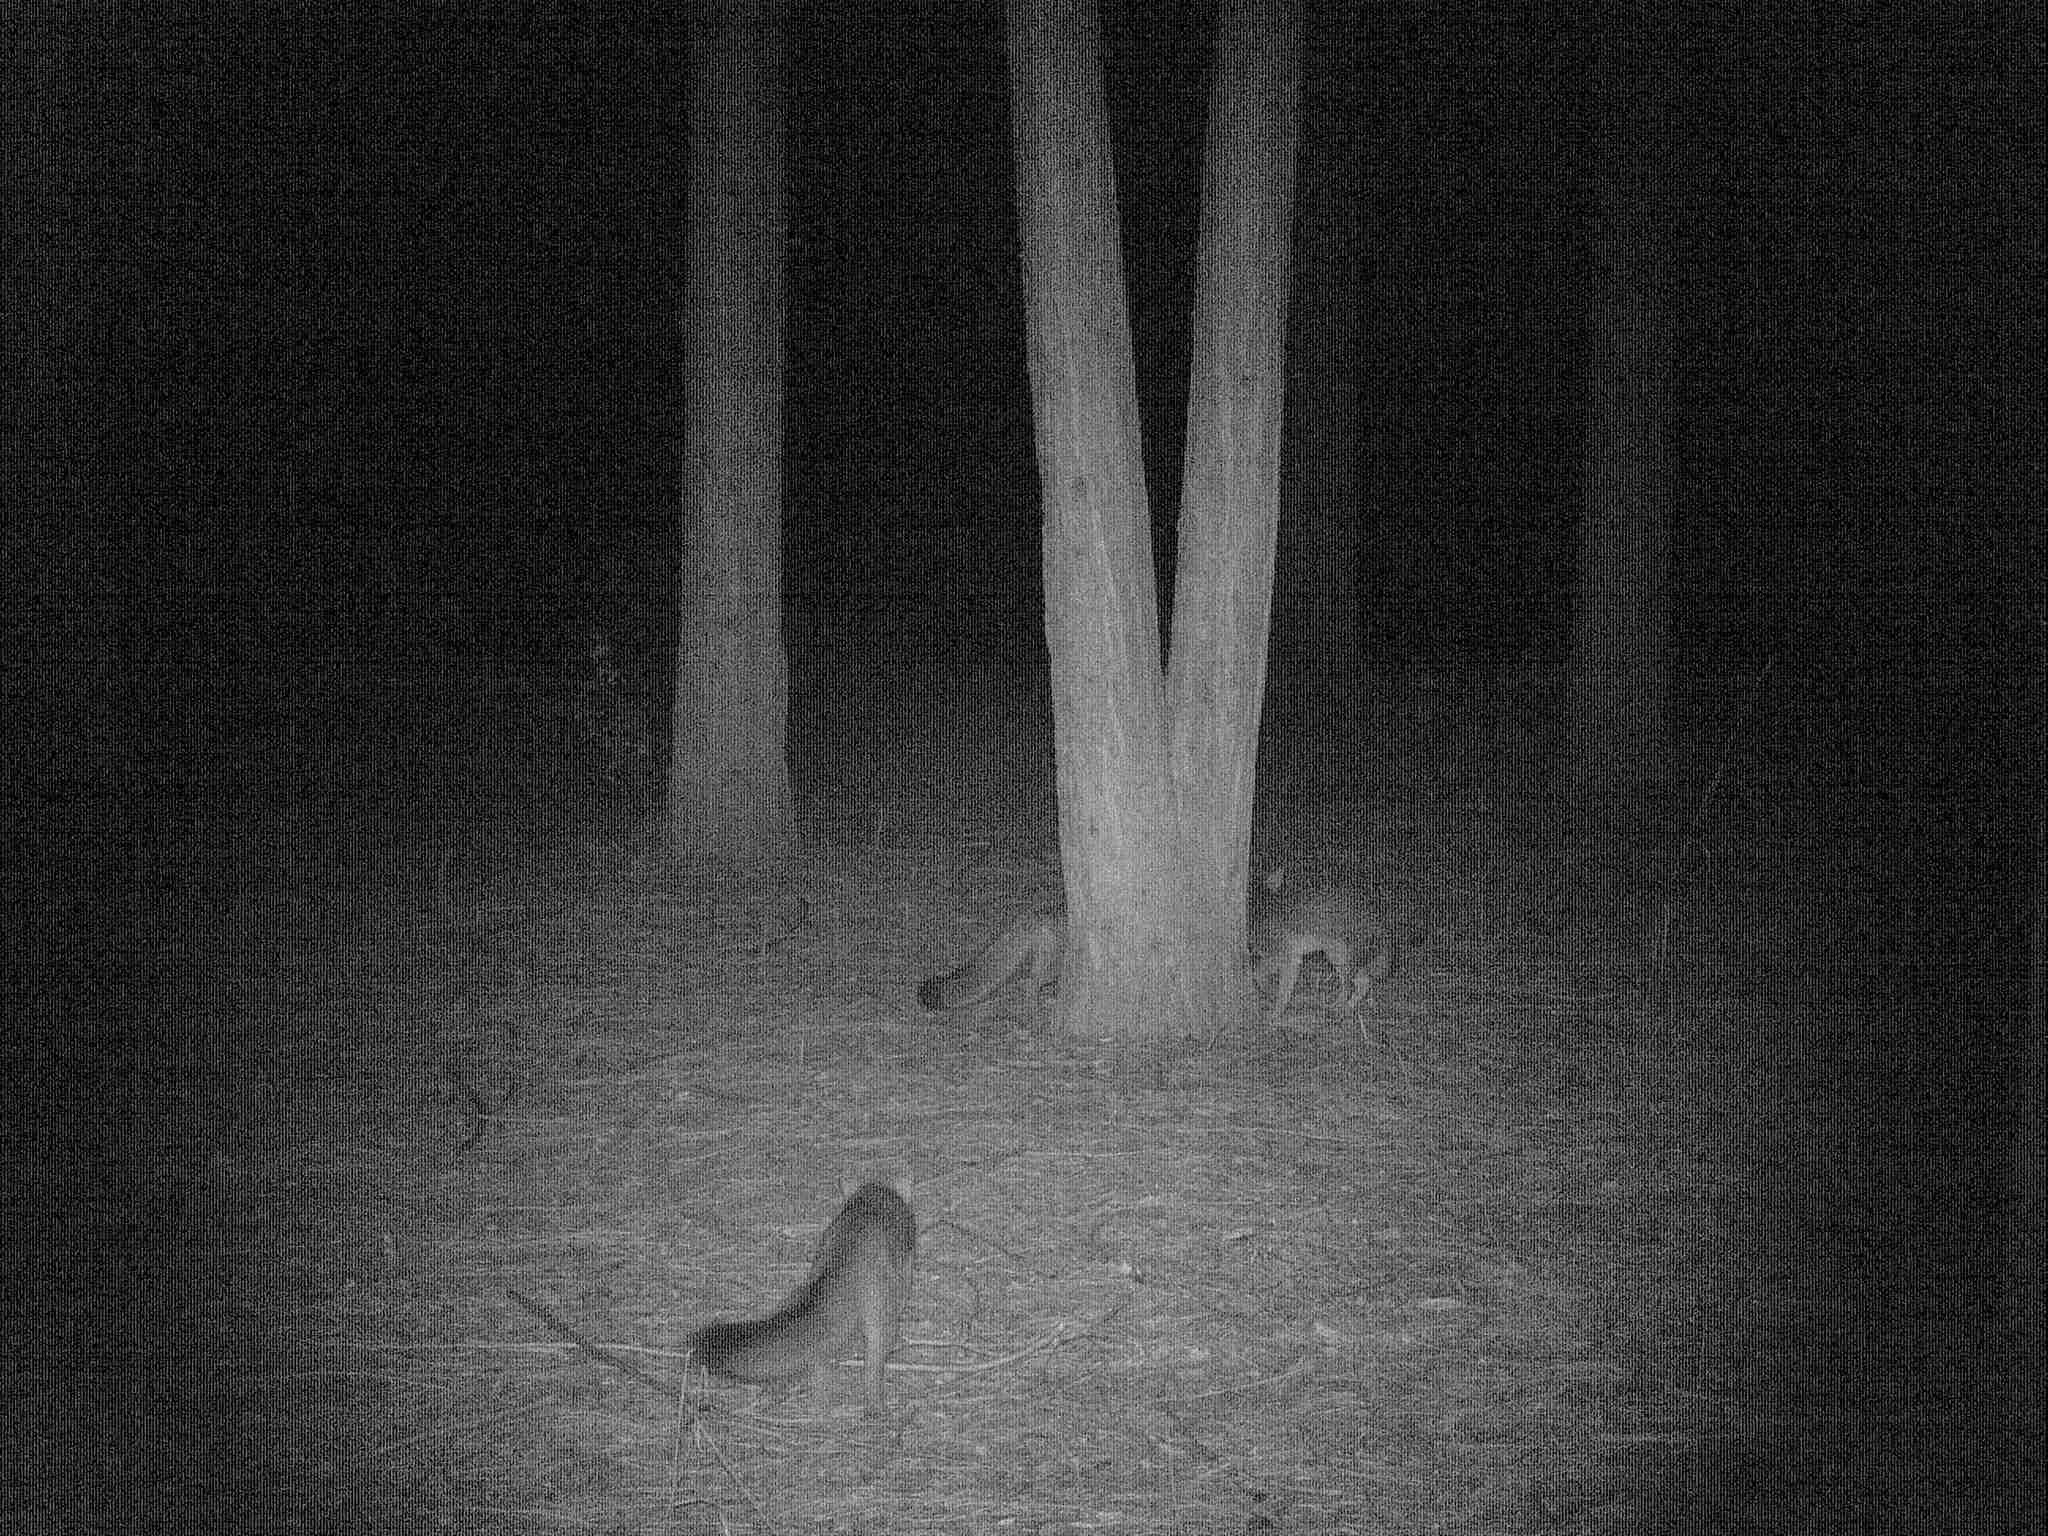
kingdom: Animalia
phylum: Chordata
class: Mammalia
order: Carnivora
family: Canidae
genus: Urocyon
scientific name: Urocyon cinereoargenteus
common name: Gray fox
